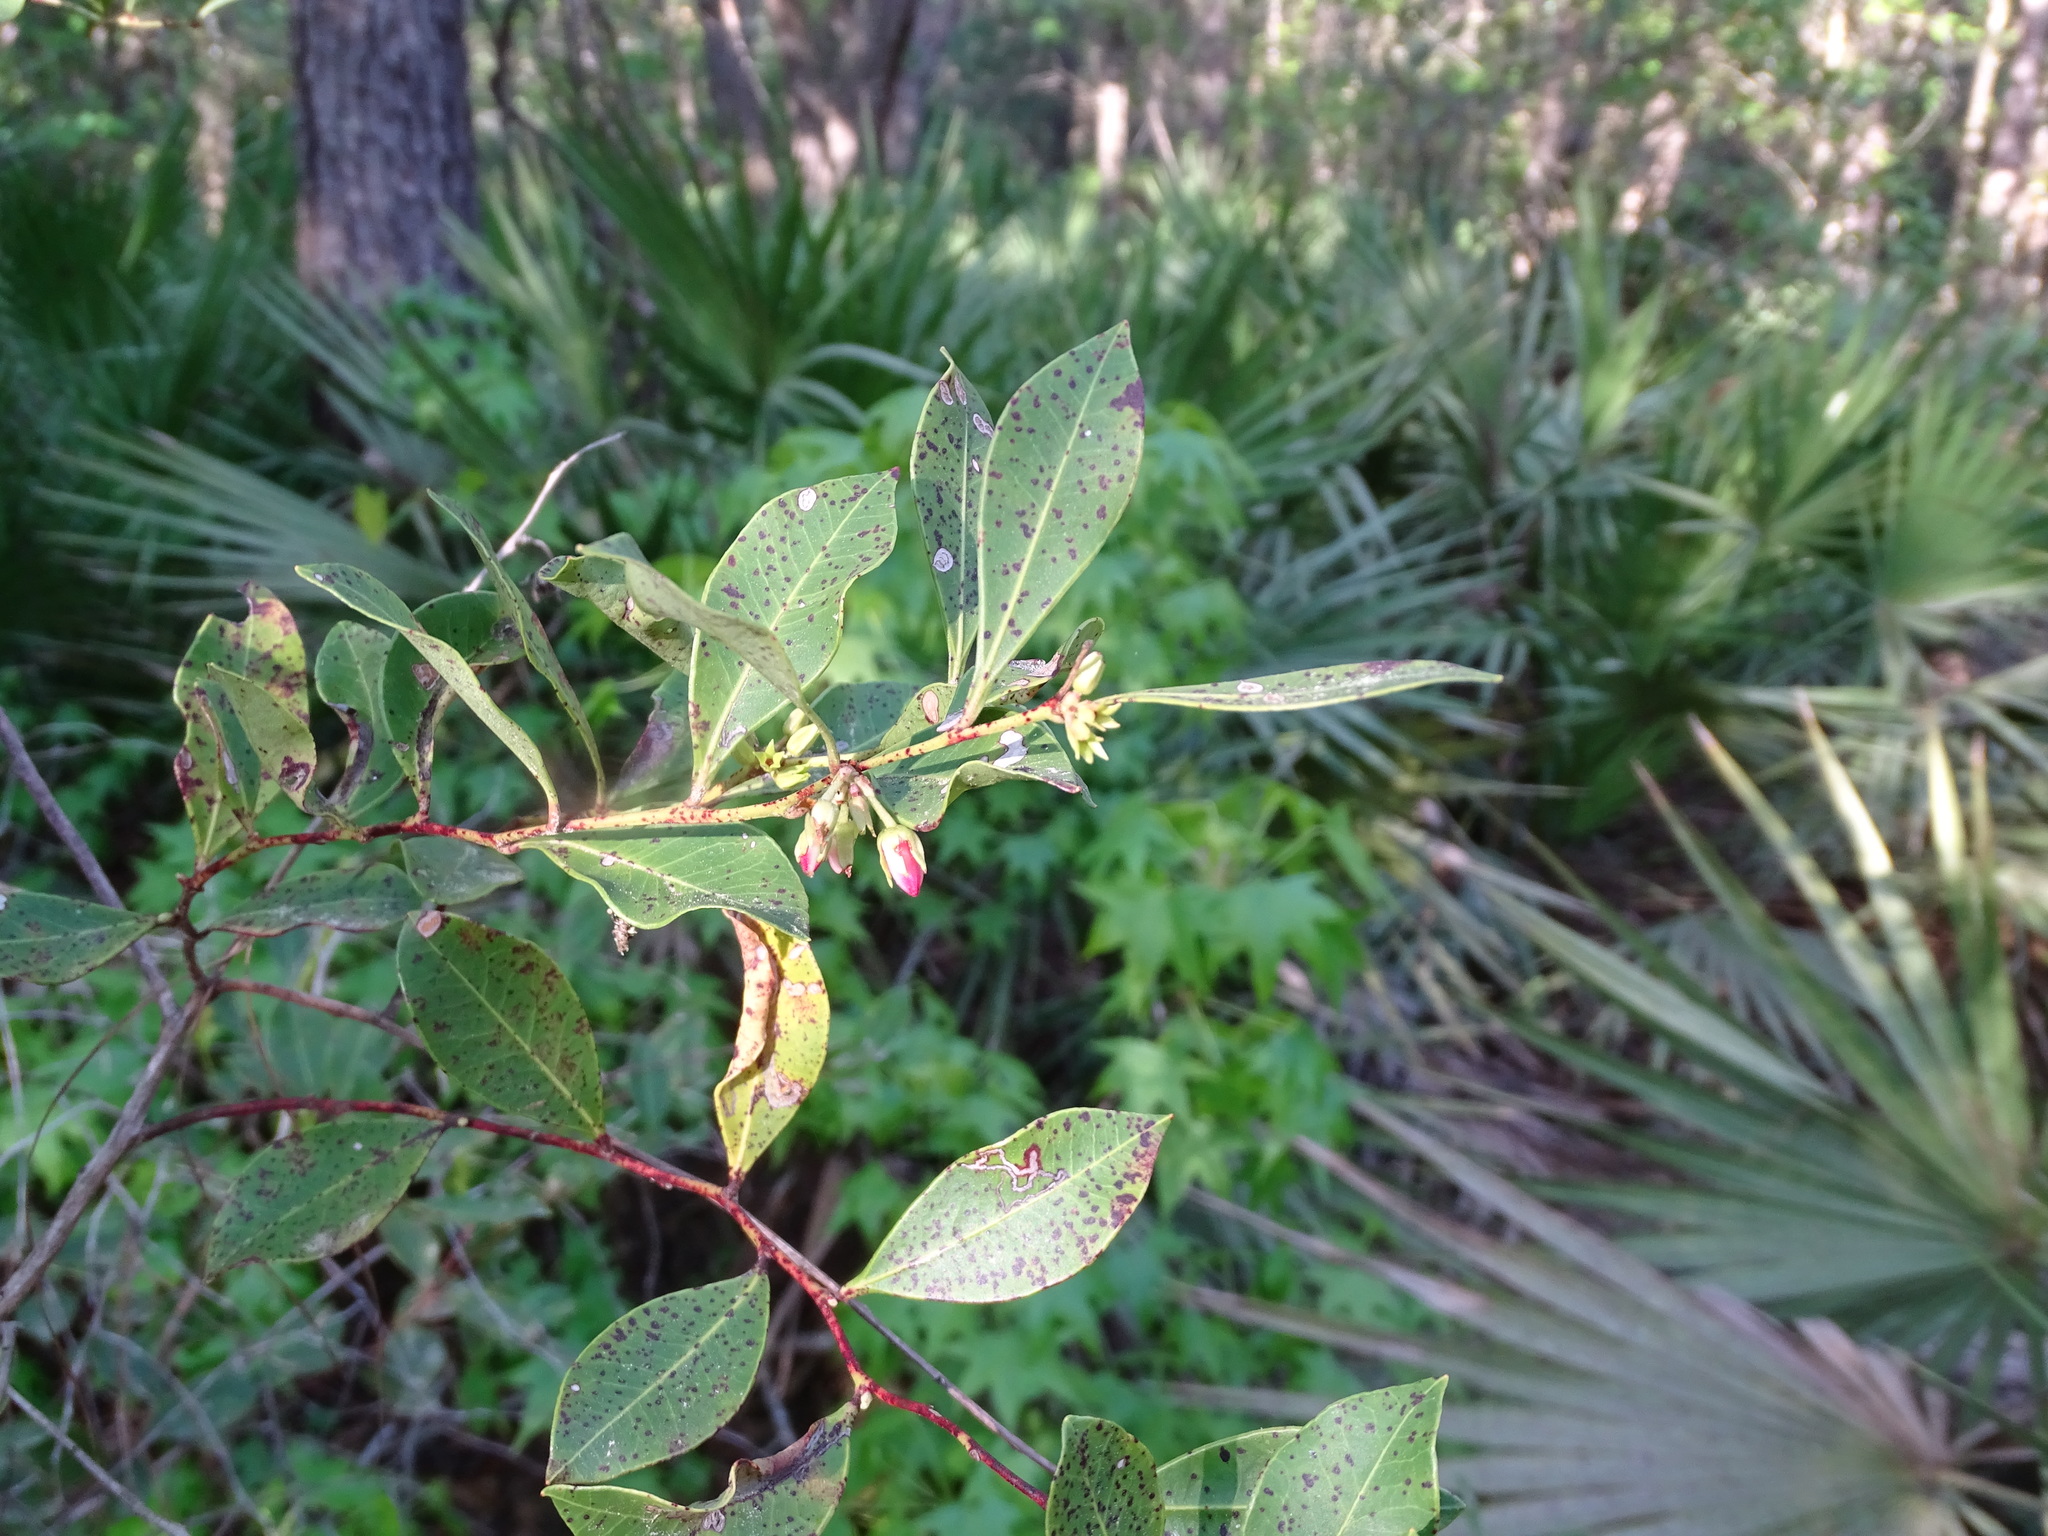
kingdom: Plantae
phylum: Tracheophyta
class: Magnoliopsida
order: Ericales
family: Ericaceae
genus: Lyonia
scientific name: Lyonia lucida
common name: Fetterbush
